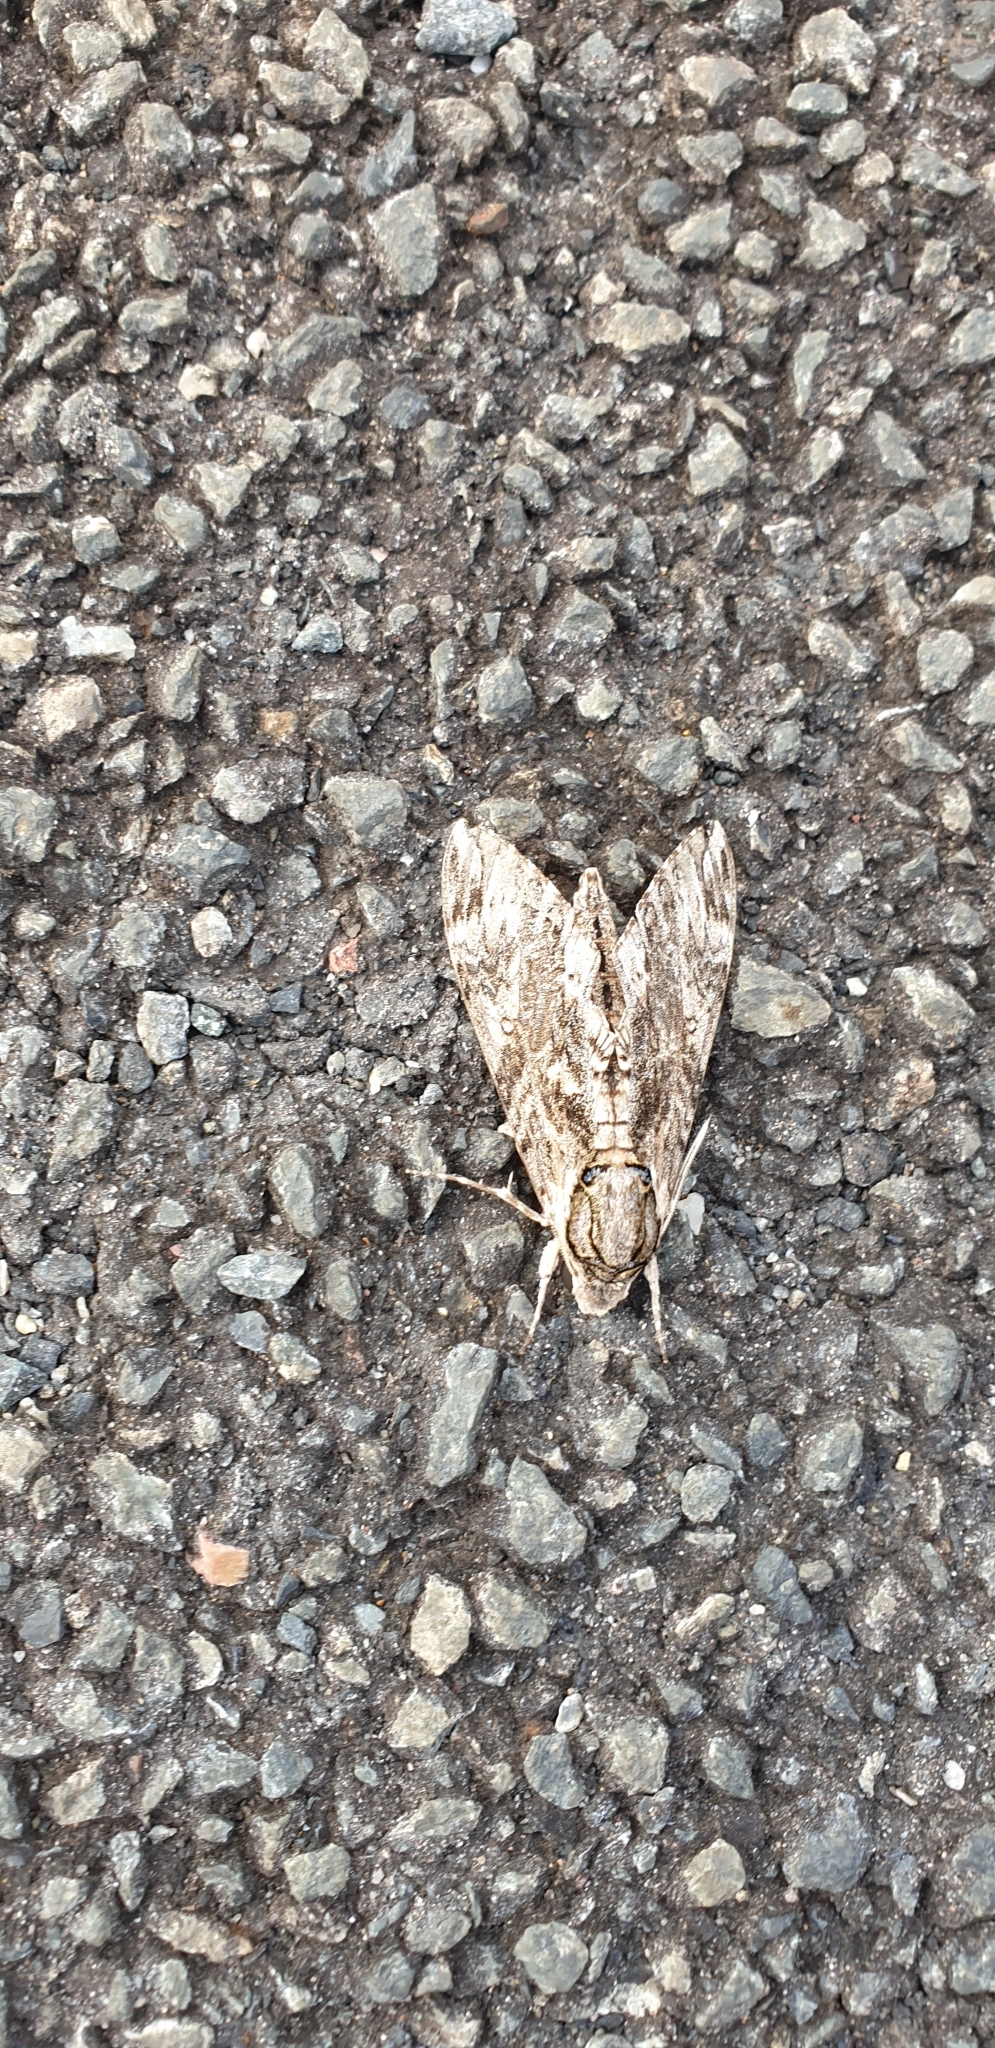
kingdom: Animalia
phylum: Arthropoda
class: Insecta
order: Lepidoptera
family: Sphingidae
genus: Agrius
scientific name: Agrius godarti
